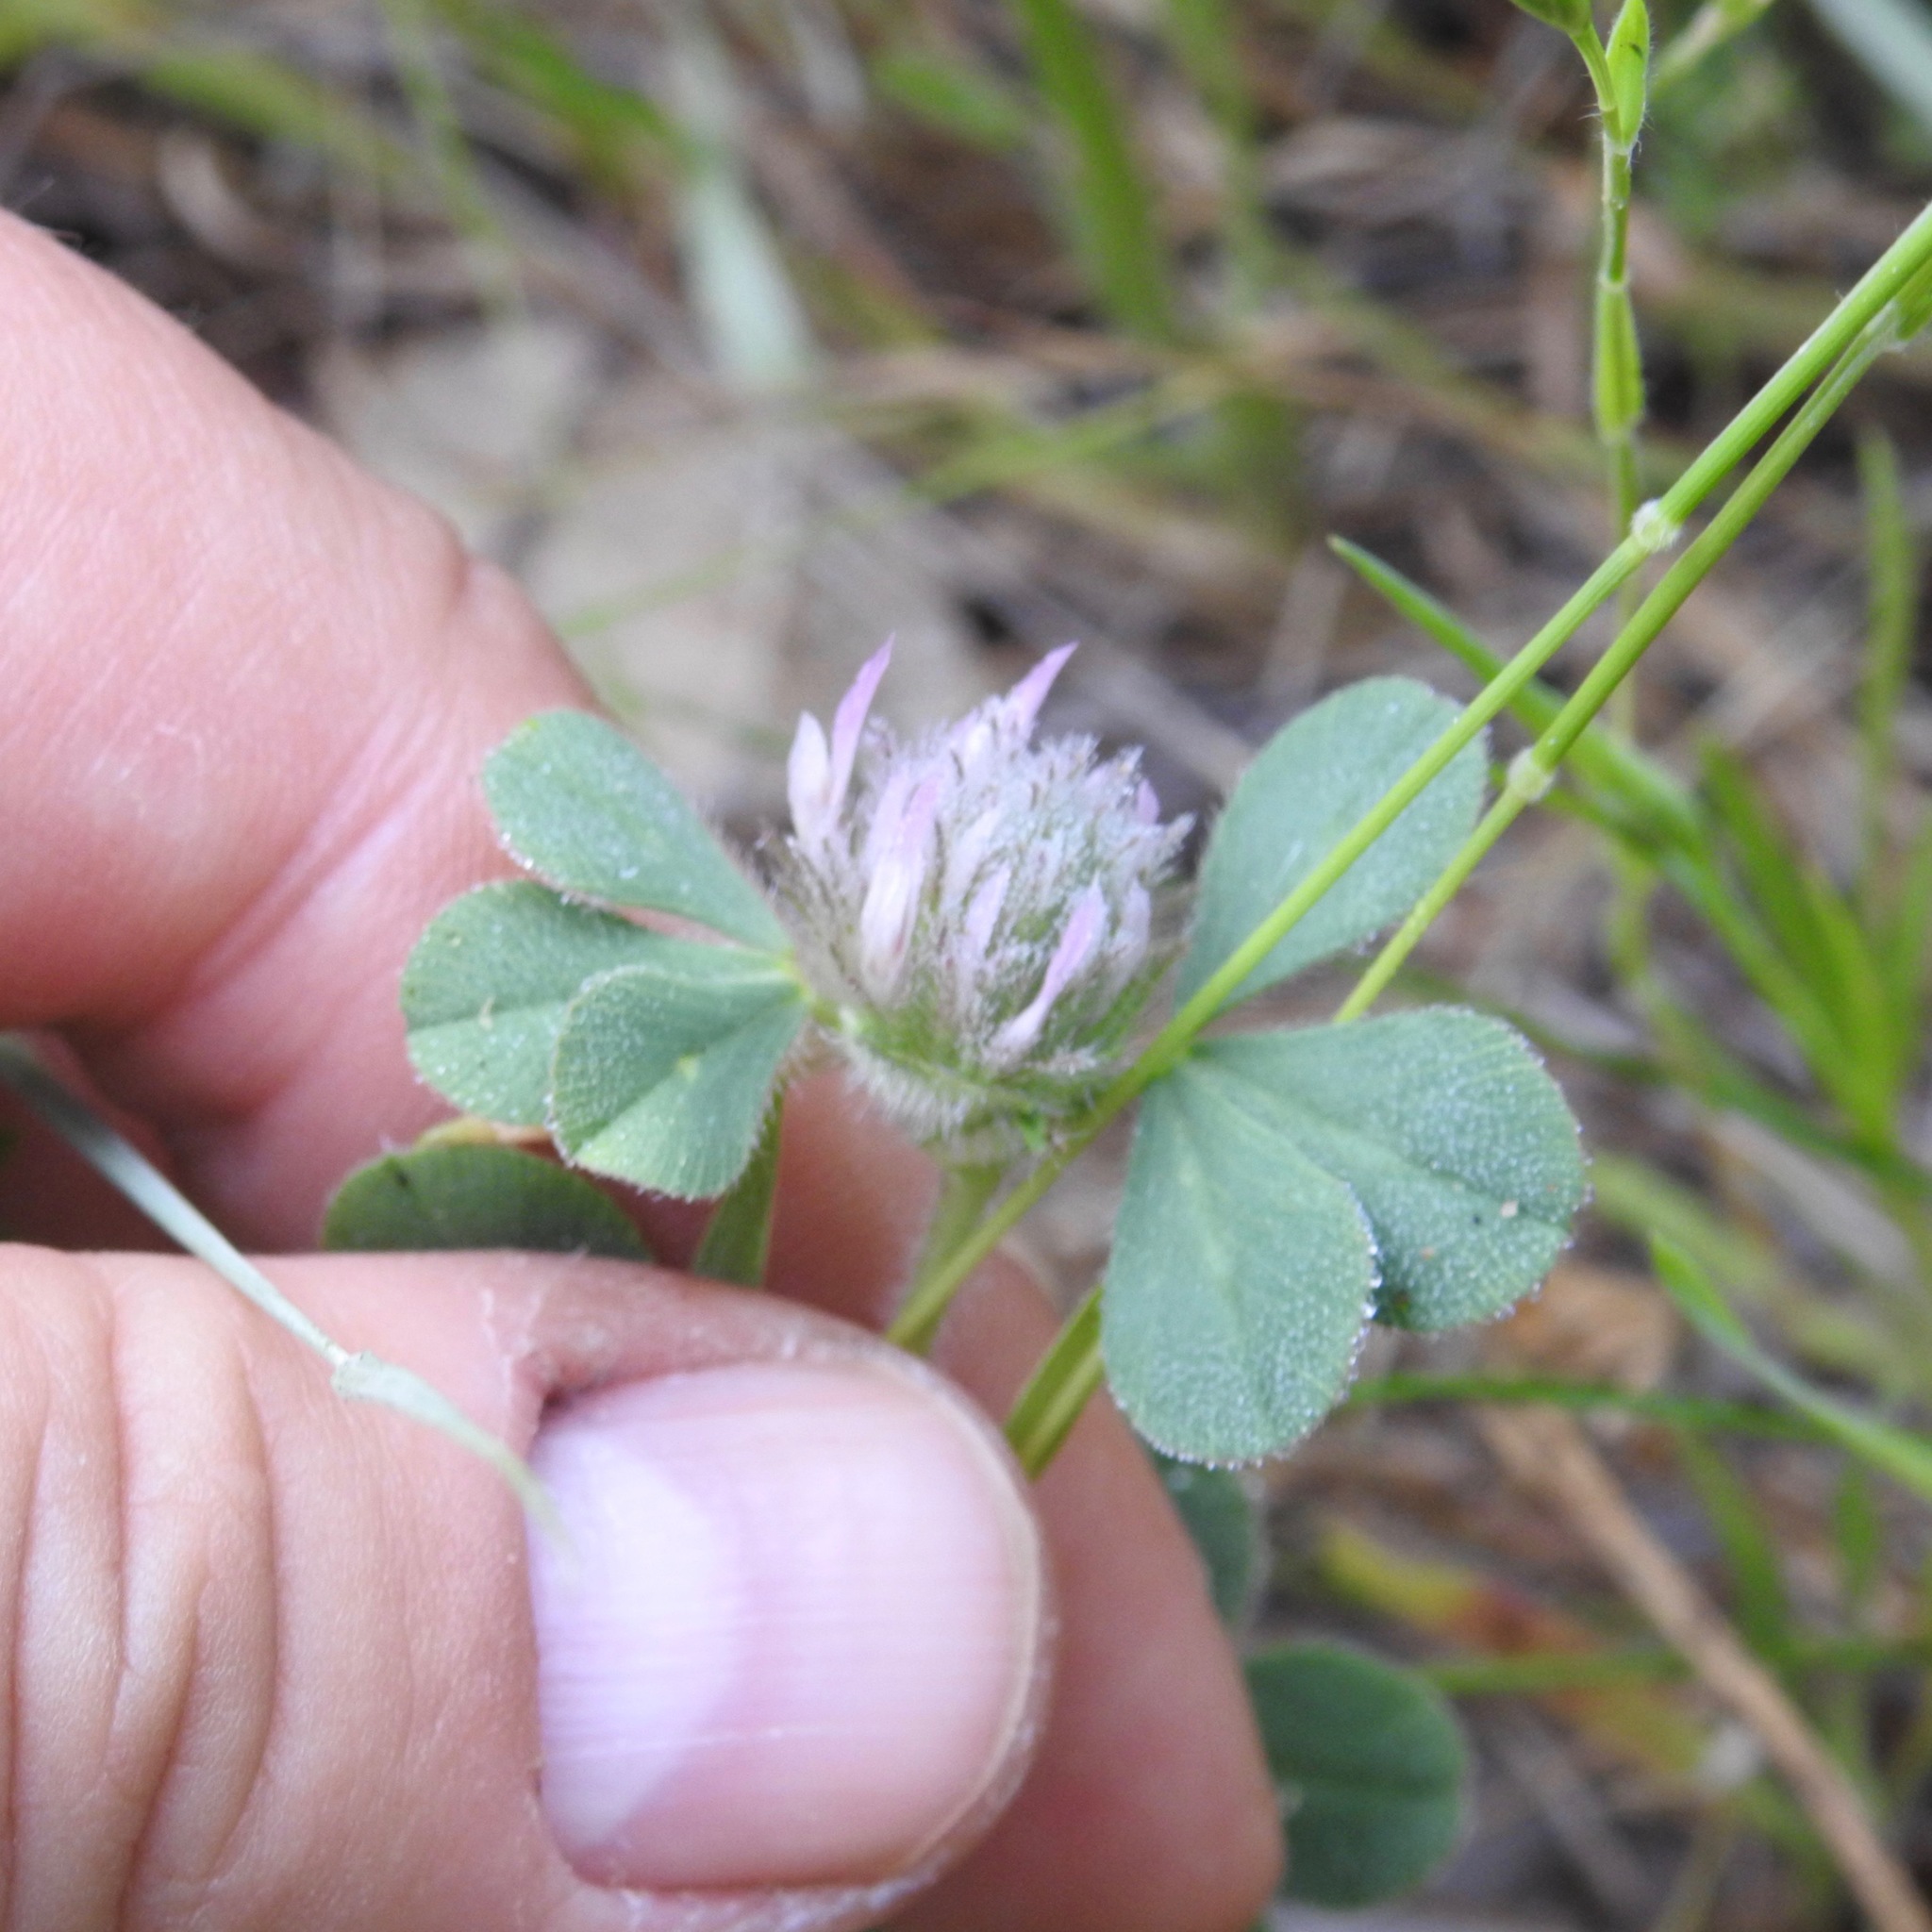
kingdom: Plantae
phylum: Tracheophyta
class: Magnoliopsida
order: Fabales
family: Fabaceae
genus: Trifolium
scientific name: Trifolium hirtum
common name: Rose clover
